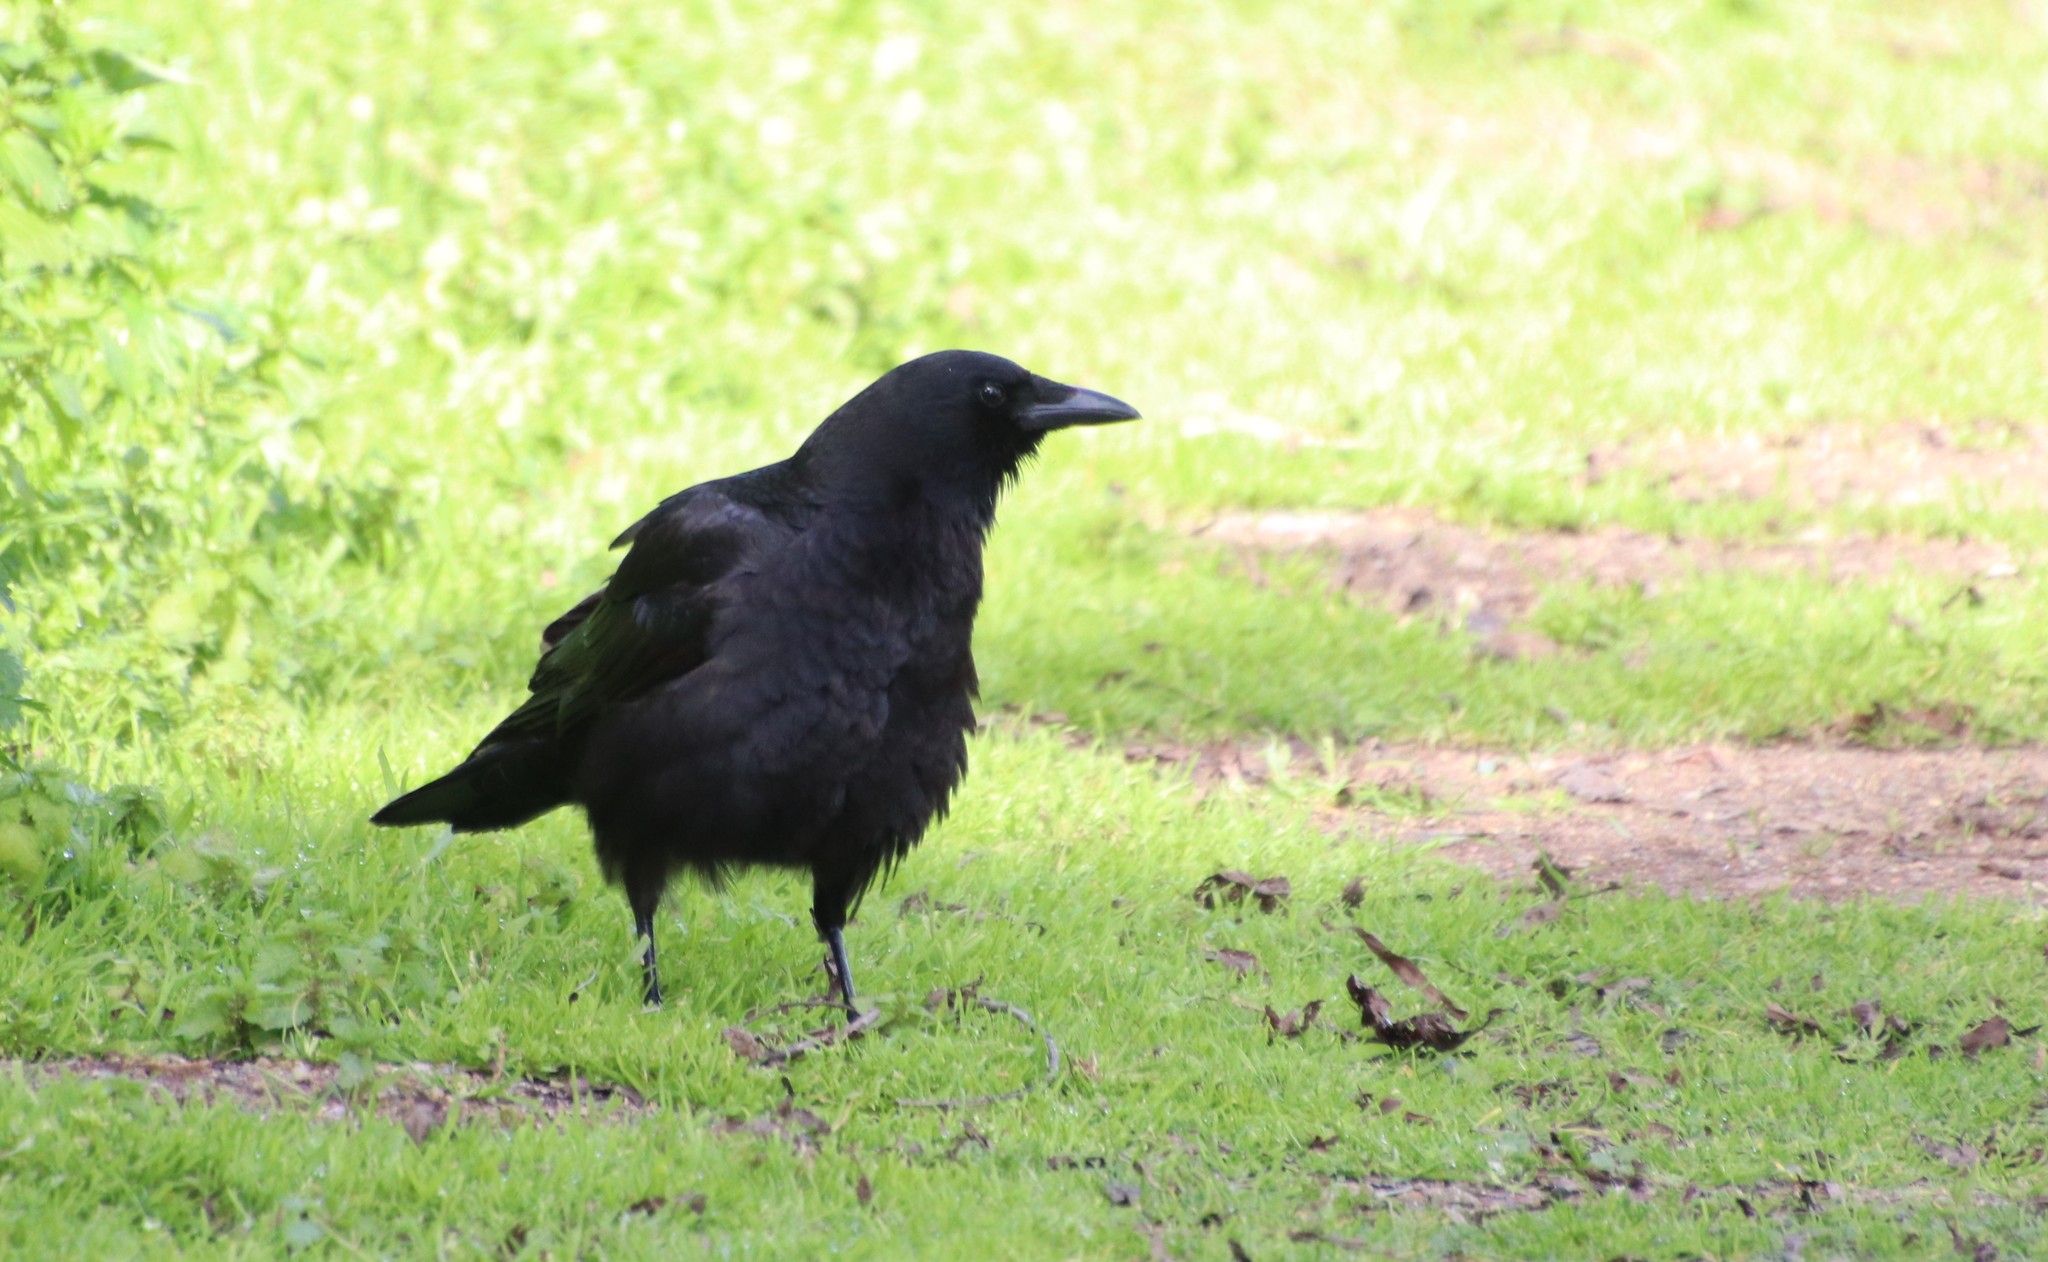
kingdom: Animalia
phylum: Chordata
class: Aves
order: Passeriformes
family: Corvidae
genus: Corvus
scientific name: Corvus brachyrhynchos
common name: American crow
